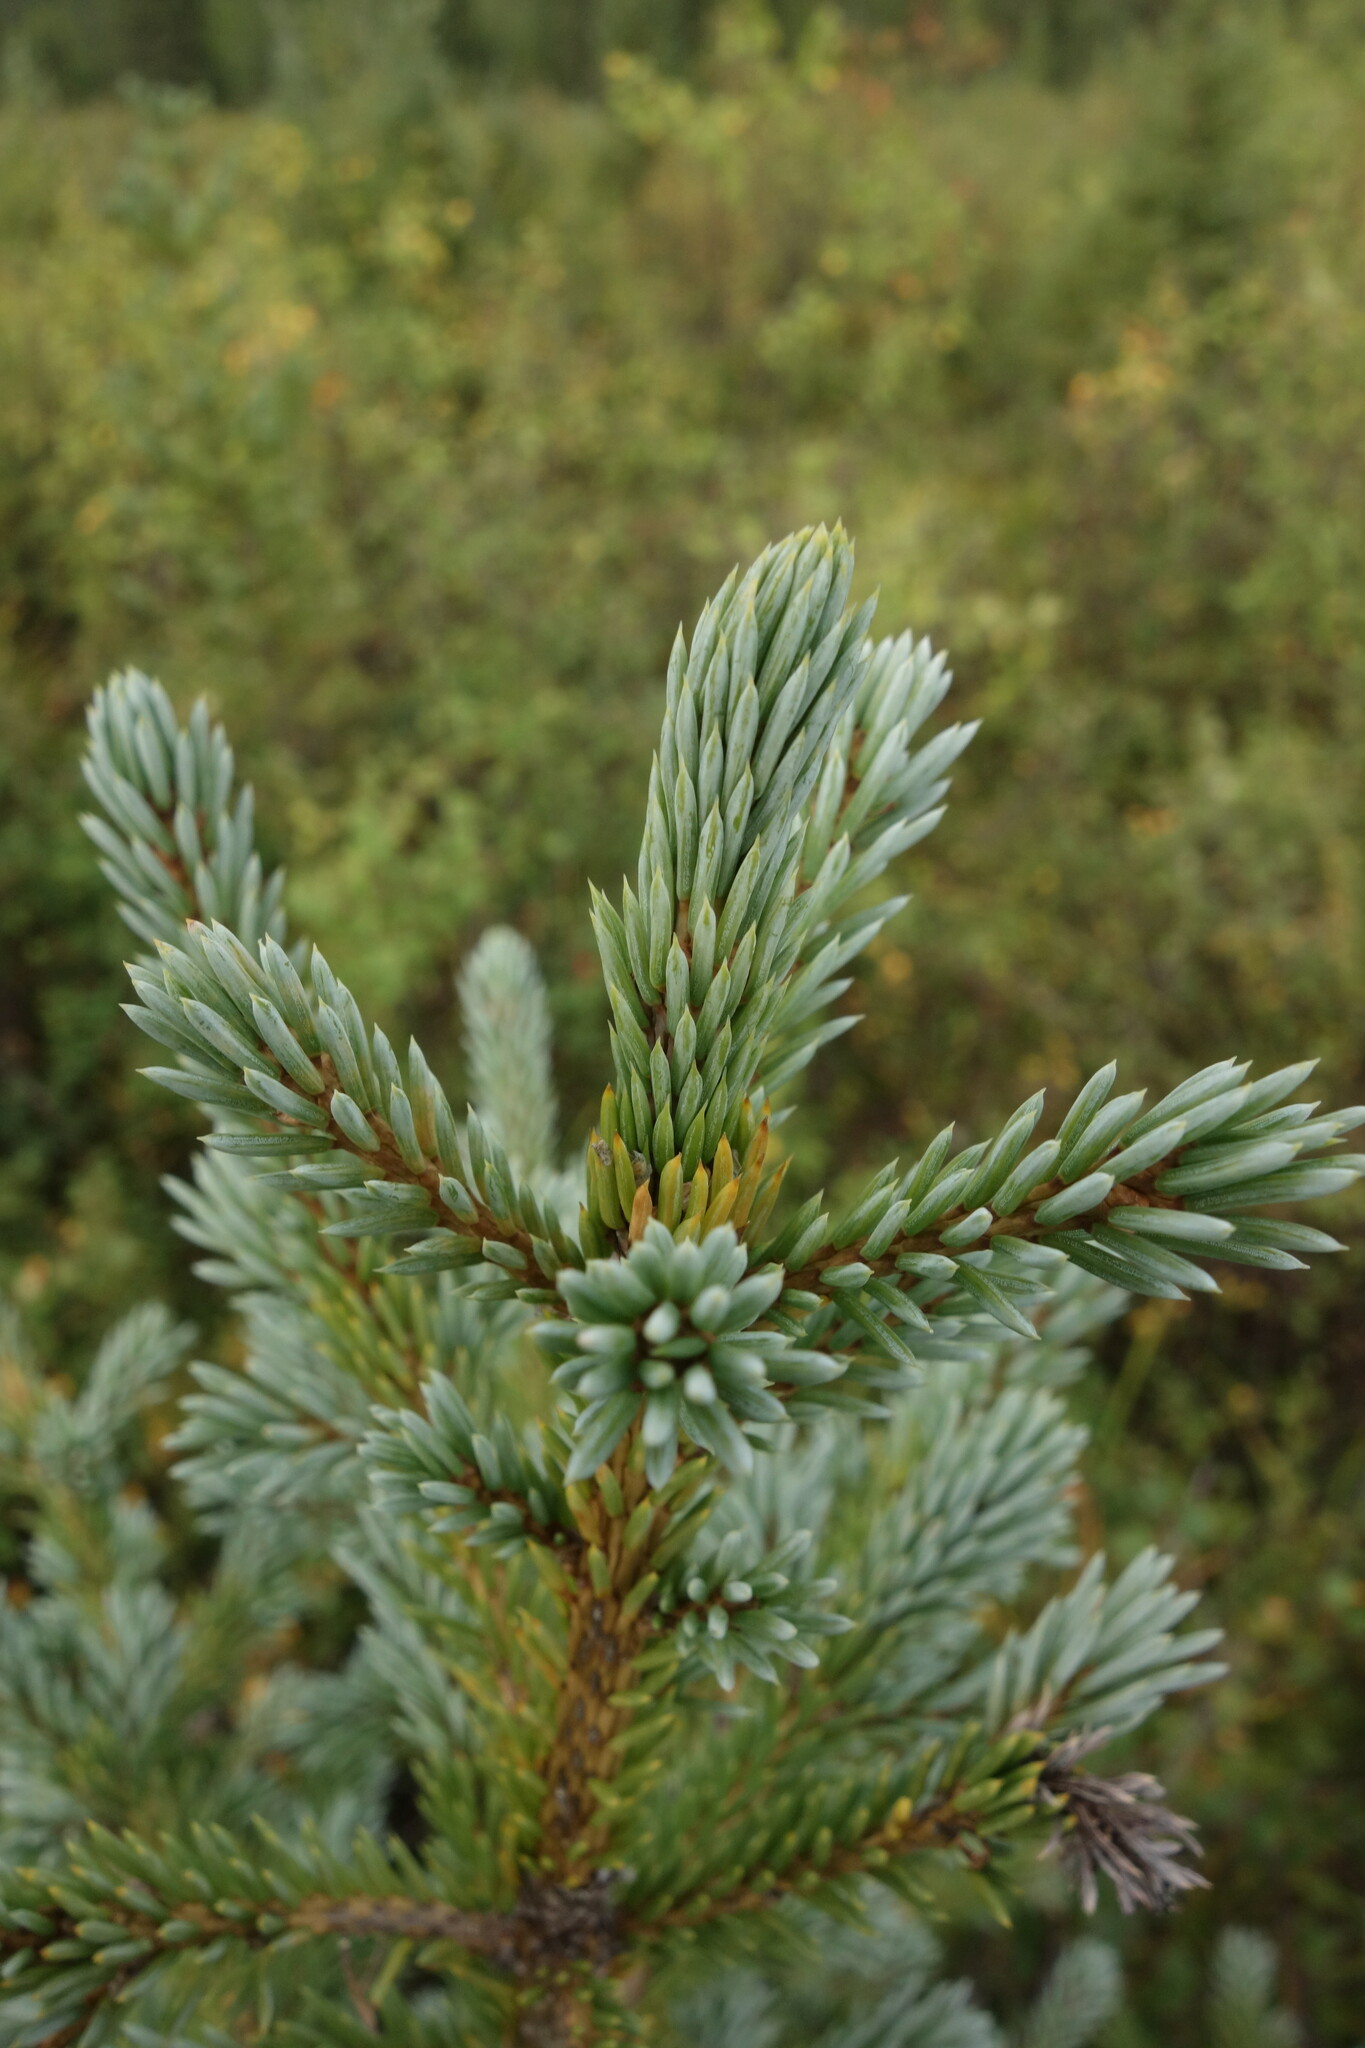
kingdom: Plantae
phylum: Tracheophyta
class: Pinopsida
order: Pinales
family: Pinaceae
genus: Picea
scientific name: Picea obovata
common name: Siberian spruce
